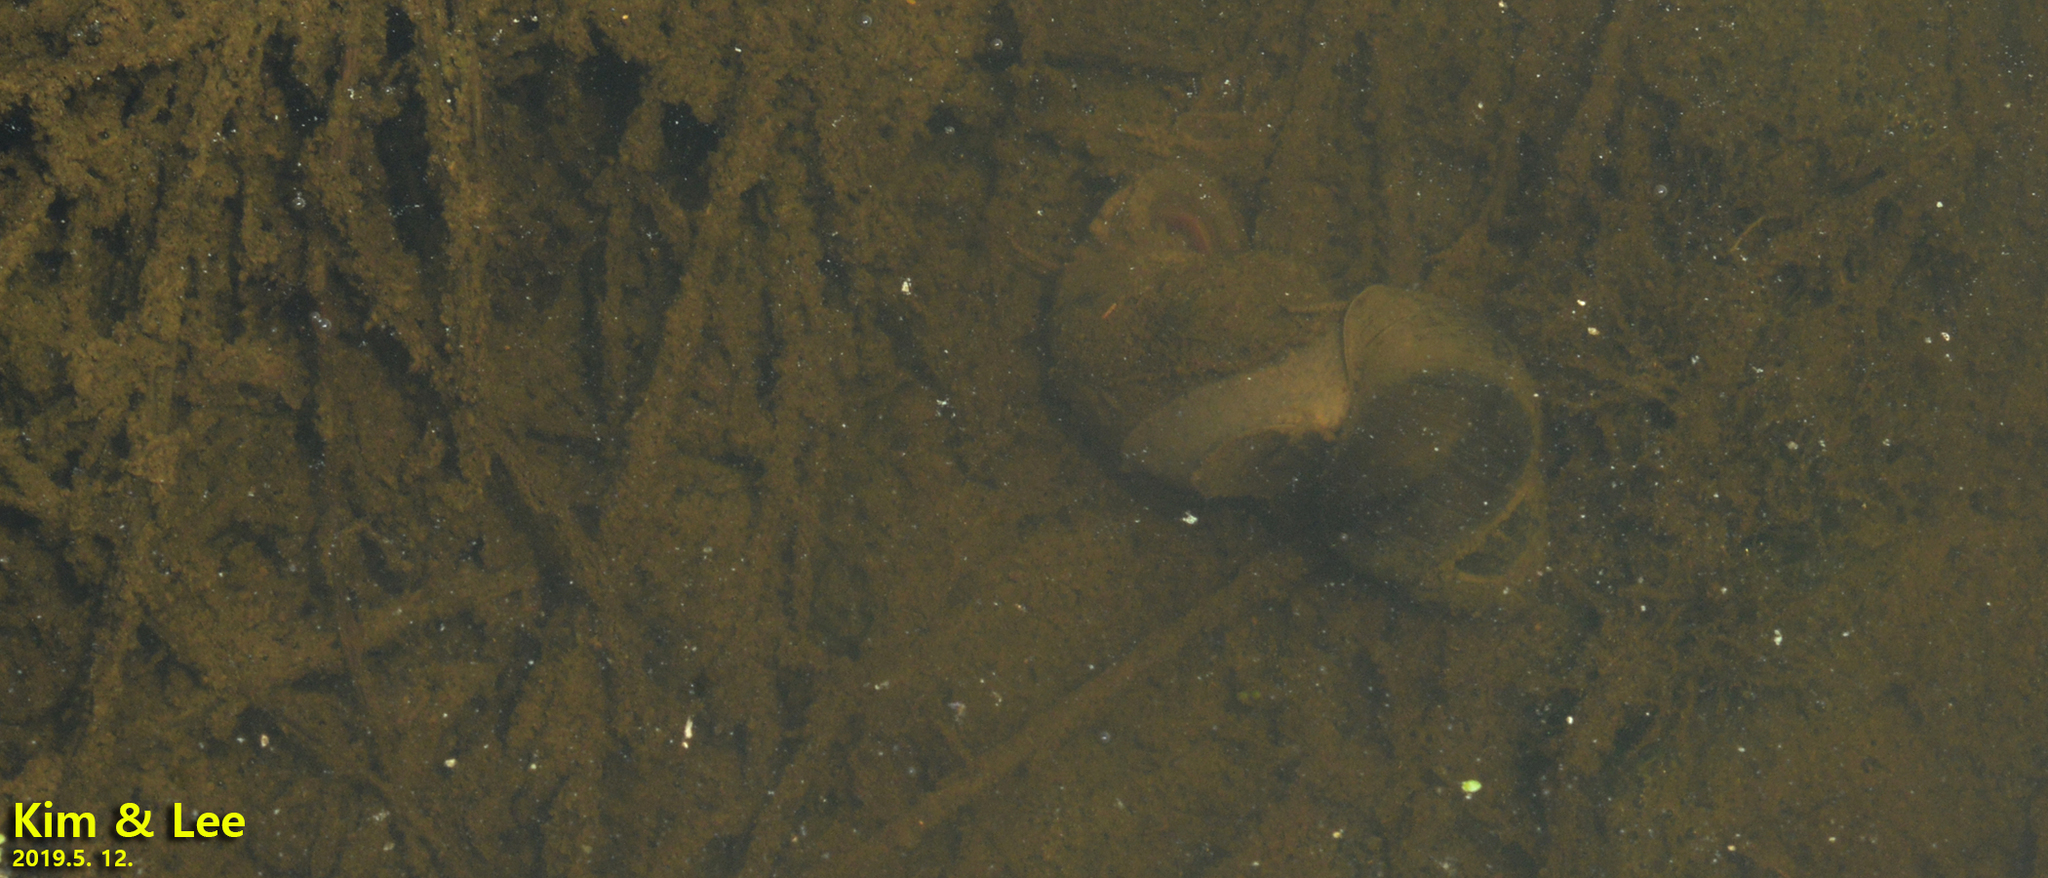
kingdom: Animalia
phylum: Mollusca
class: Gastropoda
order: Architaenioglossa
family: Viviparidae
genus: Cipangopaludina
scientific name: Cipangopaludina chinensis
